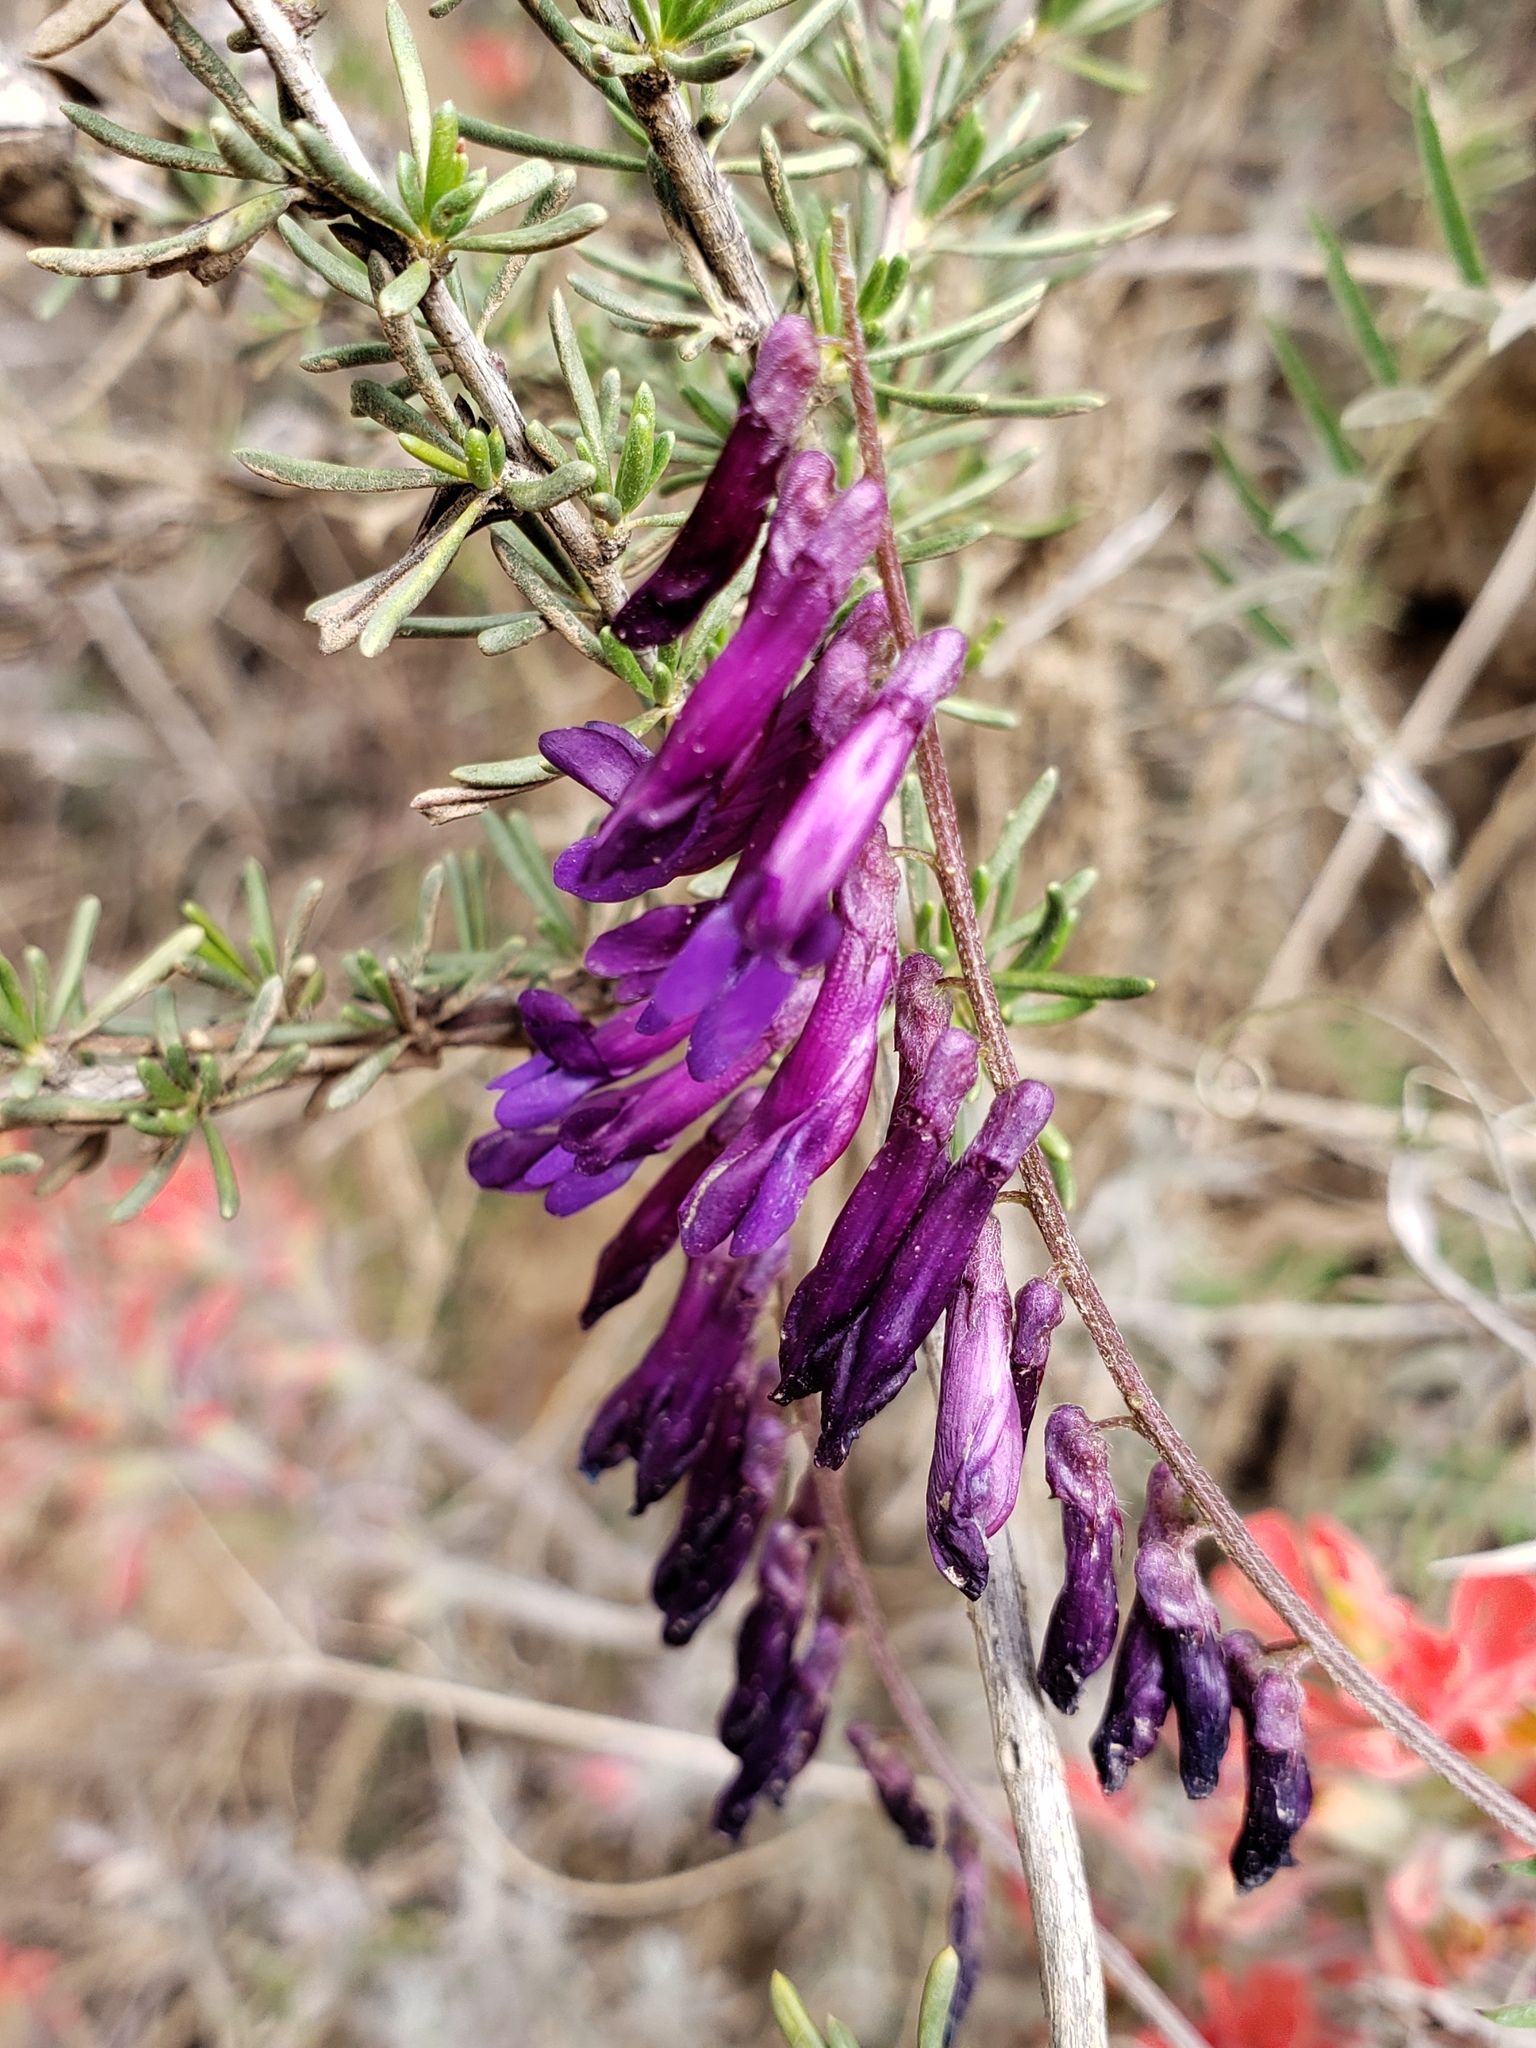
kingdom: Plantae
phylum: Tracheophyta
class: Magnoliopsida
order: Fabales
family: Fabaceae
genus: Vicia
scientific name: Vicia villosa
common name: Fodder vetch
